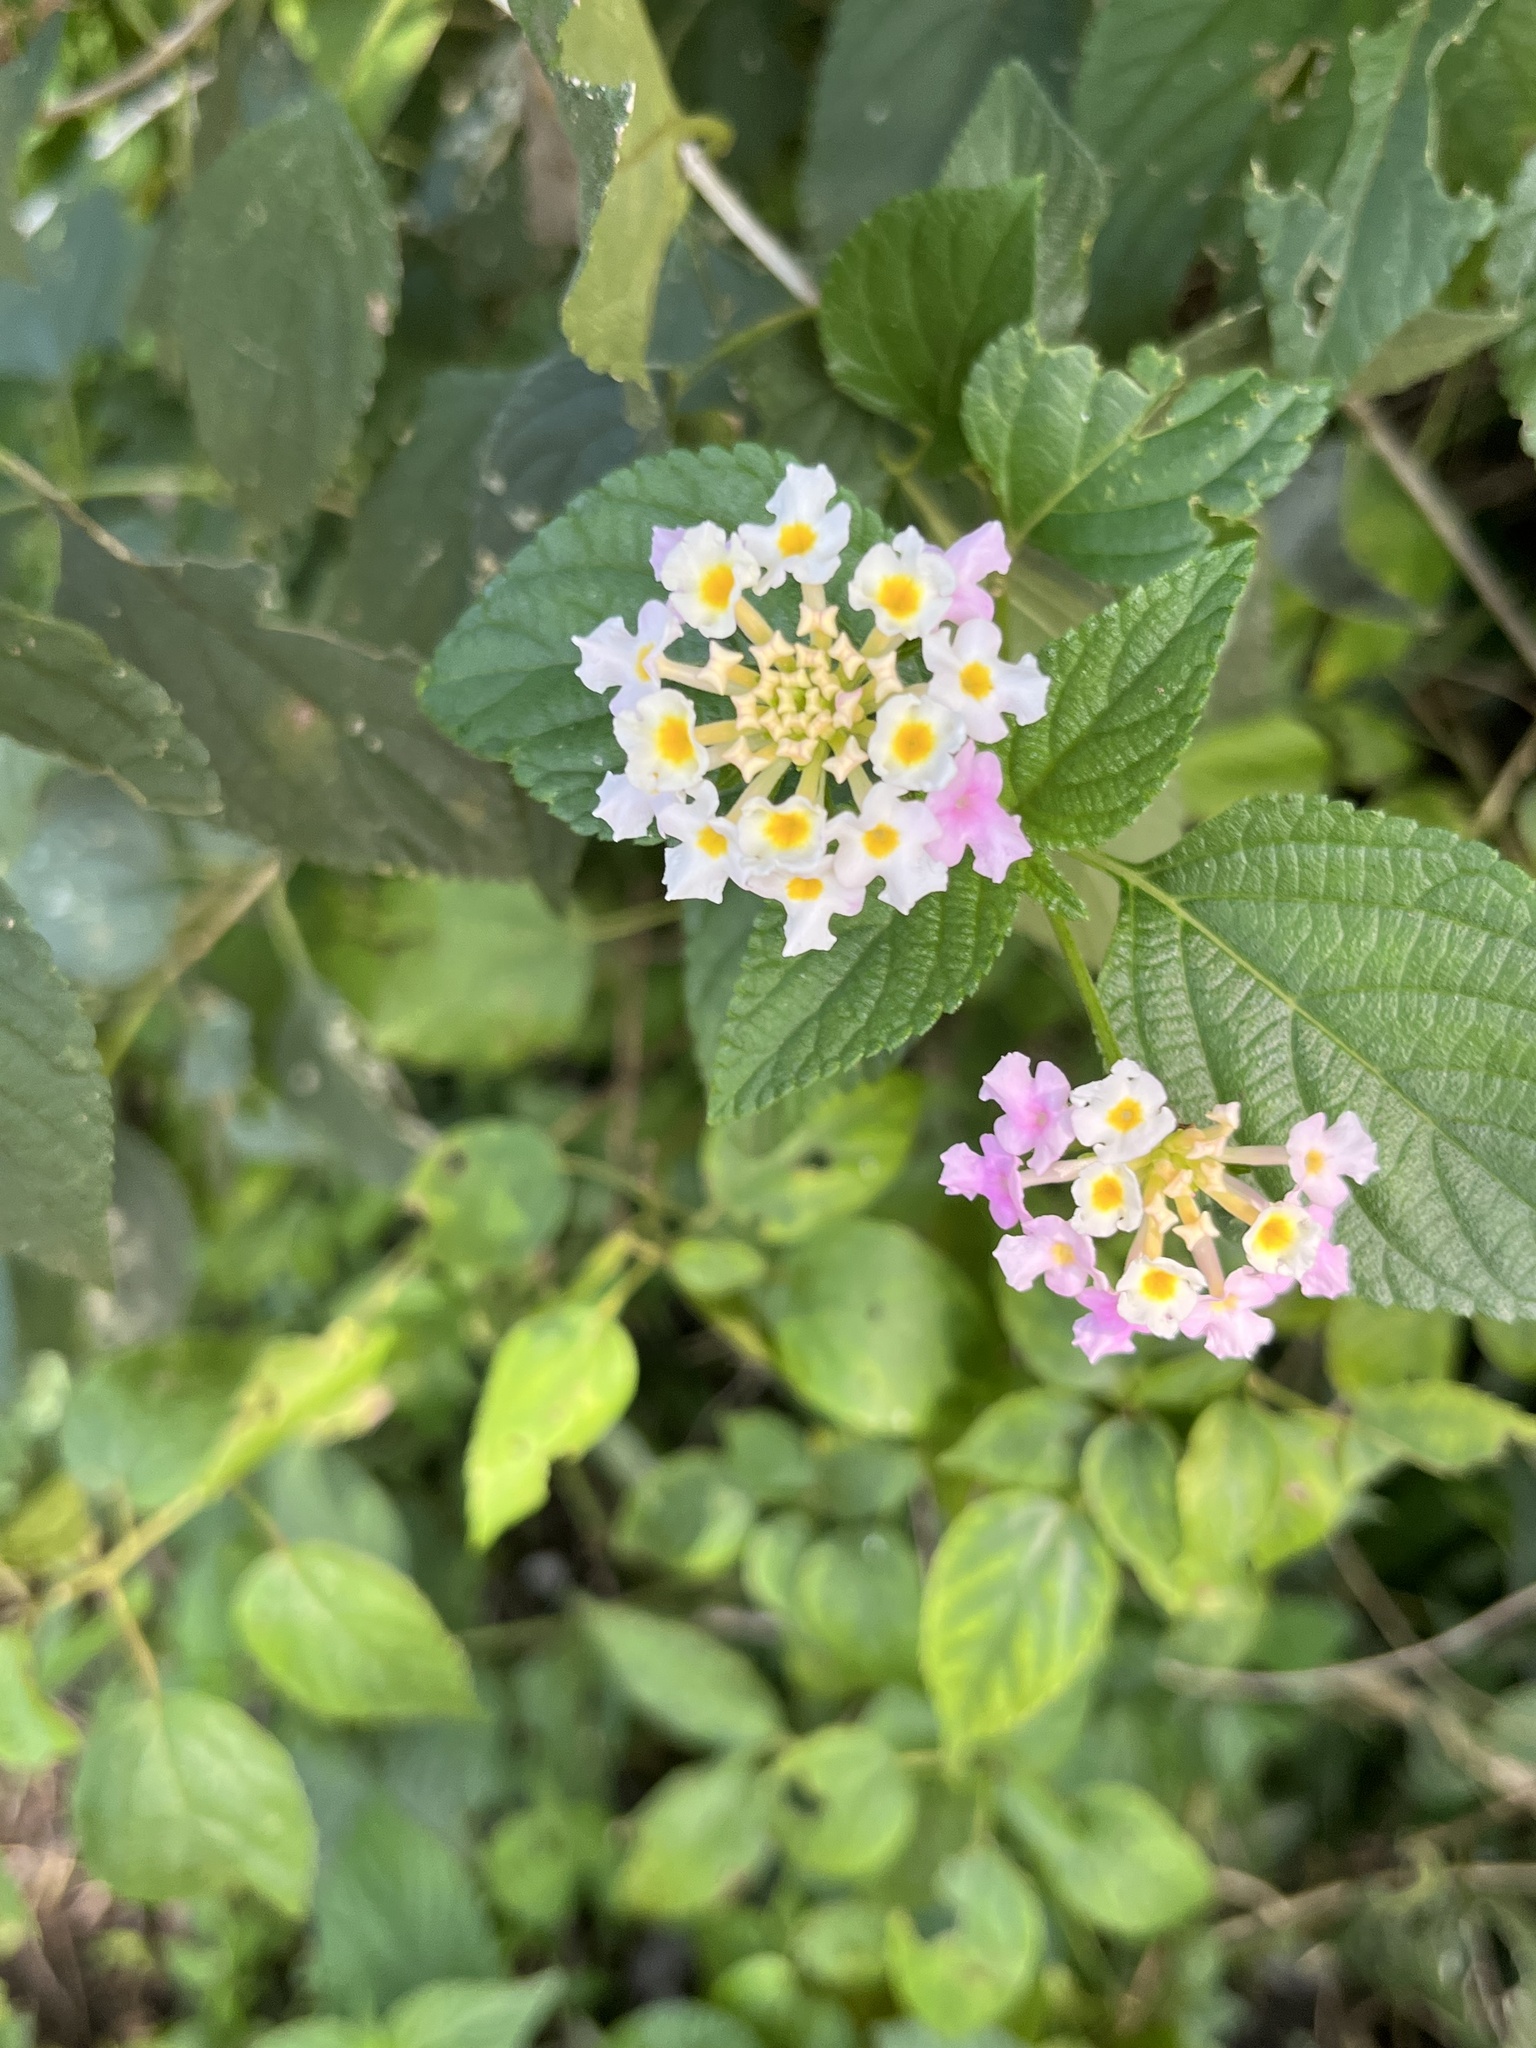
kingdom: Plantae
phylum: Tracheophyta
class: Magnoliopsida
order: Lamiales
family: Verbenaceae
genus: Lantana
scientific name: Lantana camara
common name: Lantana
